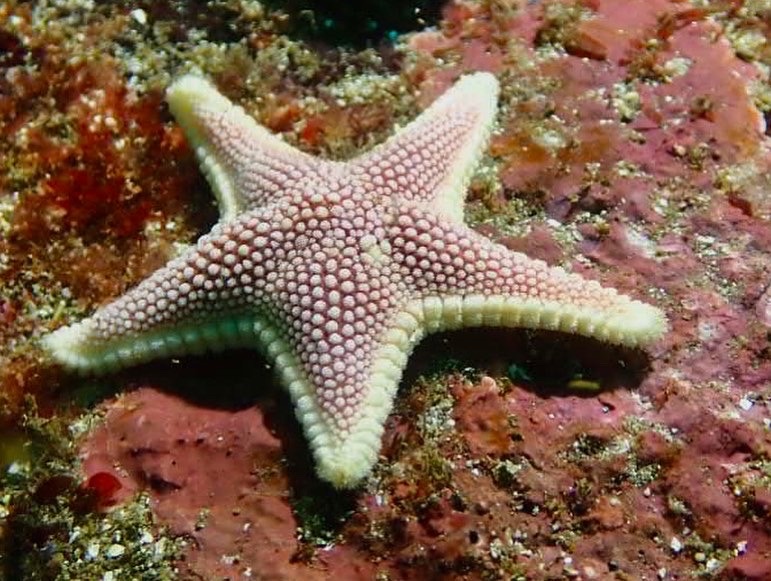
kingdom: Animalia
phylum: Echinodermata
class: Asteroidea
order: Valvatida
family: Odontasteridae
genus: Odontaster
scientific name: Odontaster penicillatus
